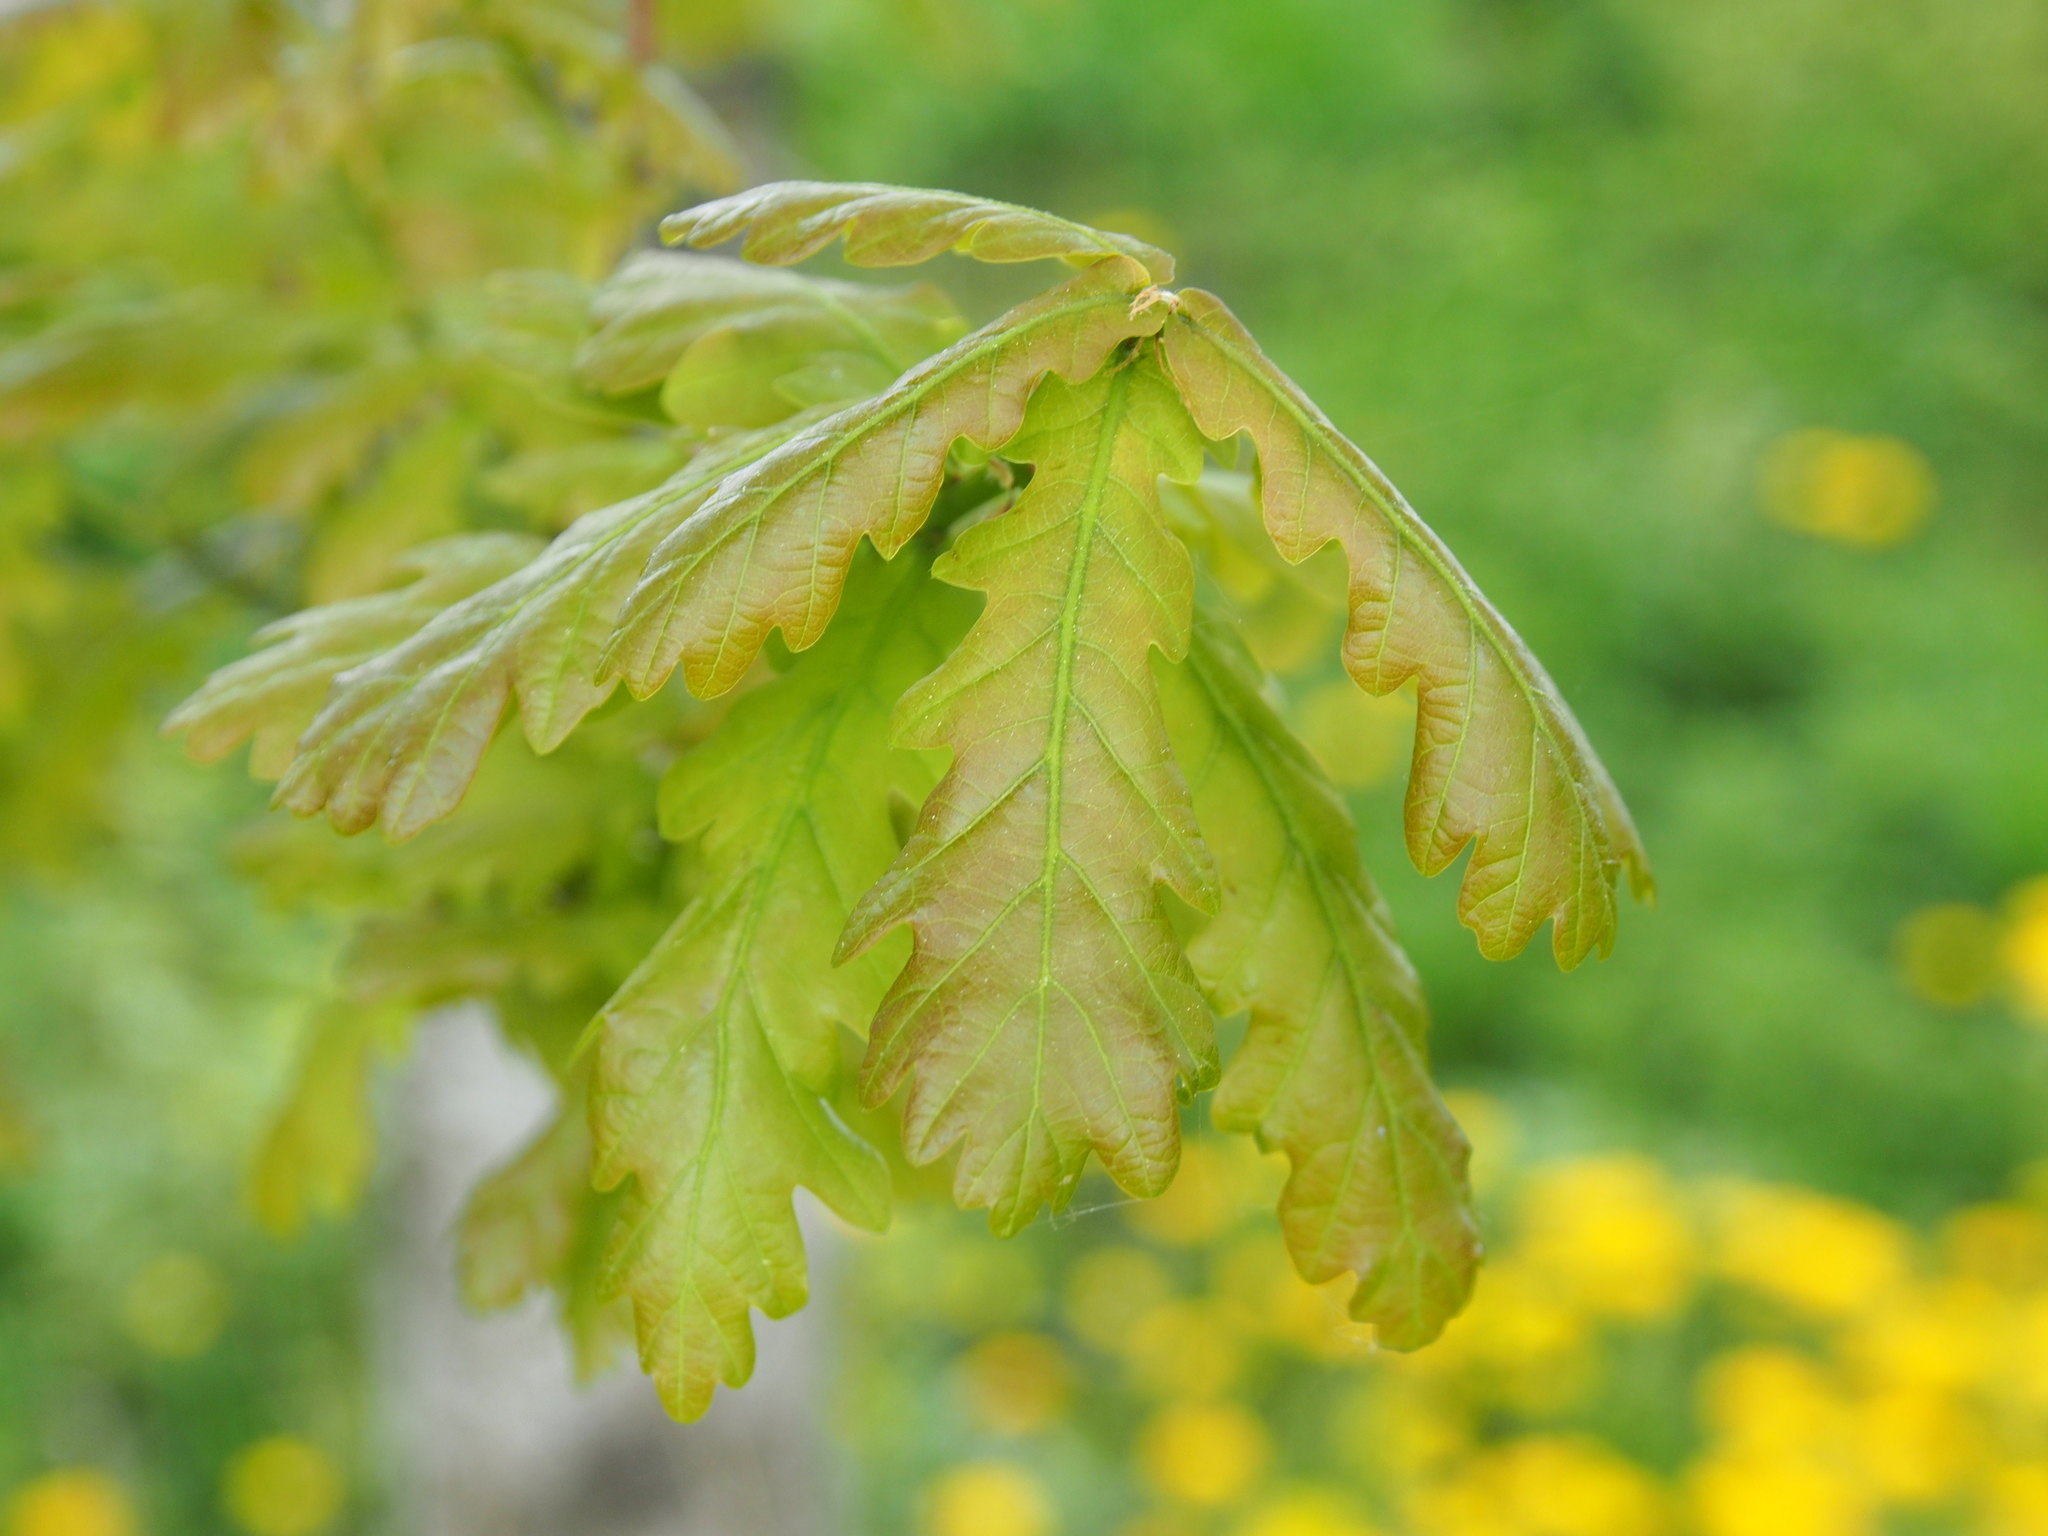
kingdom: Plantae
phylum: Tracheophyta
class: Magnoliopsida
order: Fagales
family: Fagaceae
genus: Quercus
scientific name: Quercus robur
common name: Pedunculate oak
